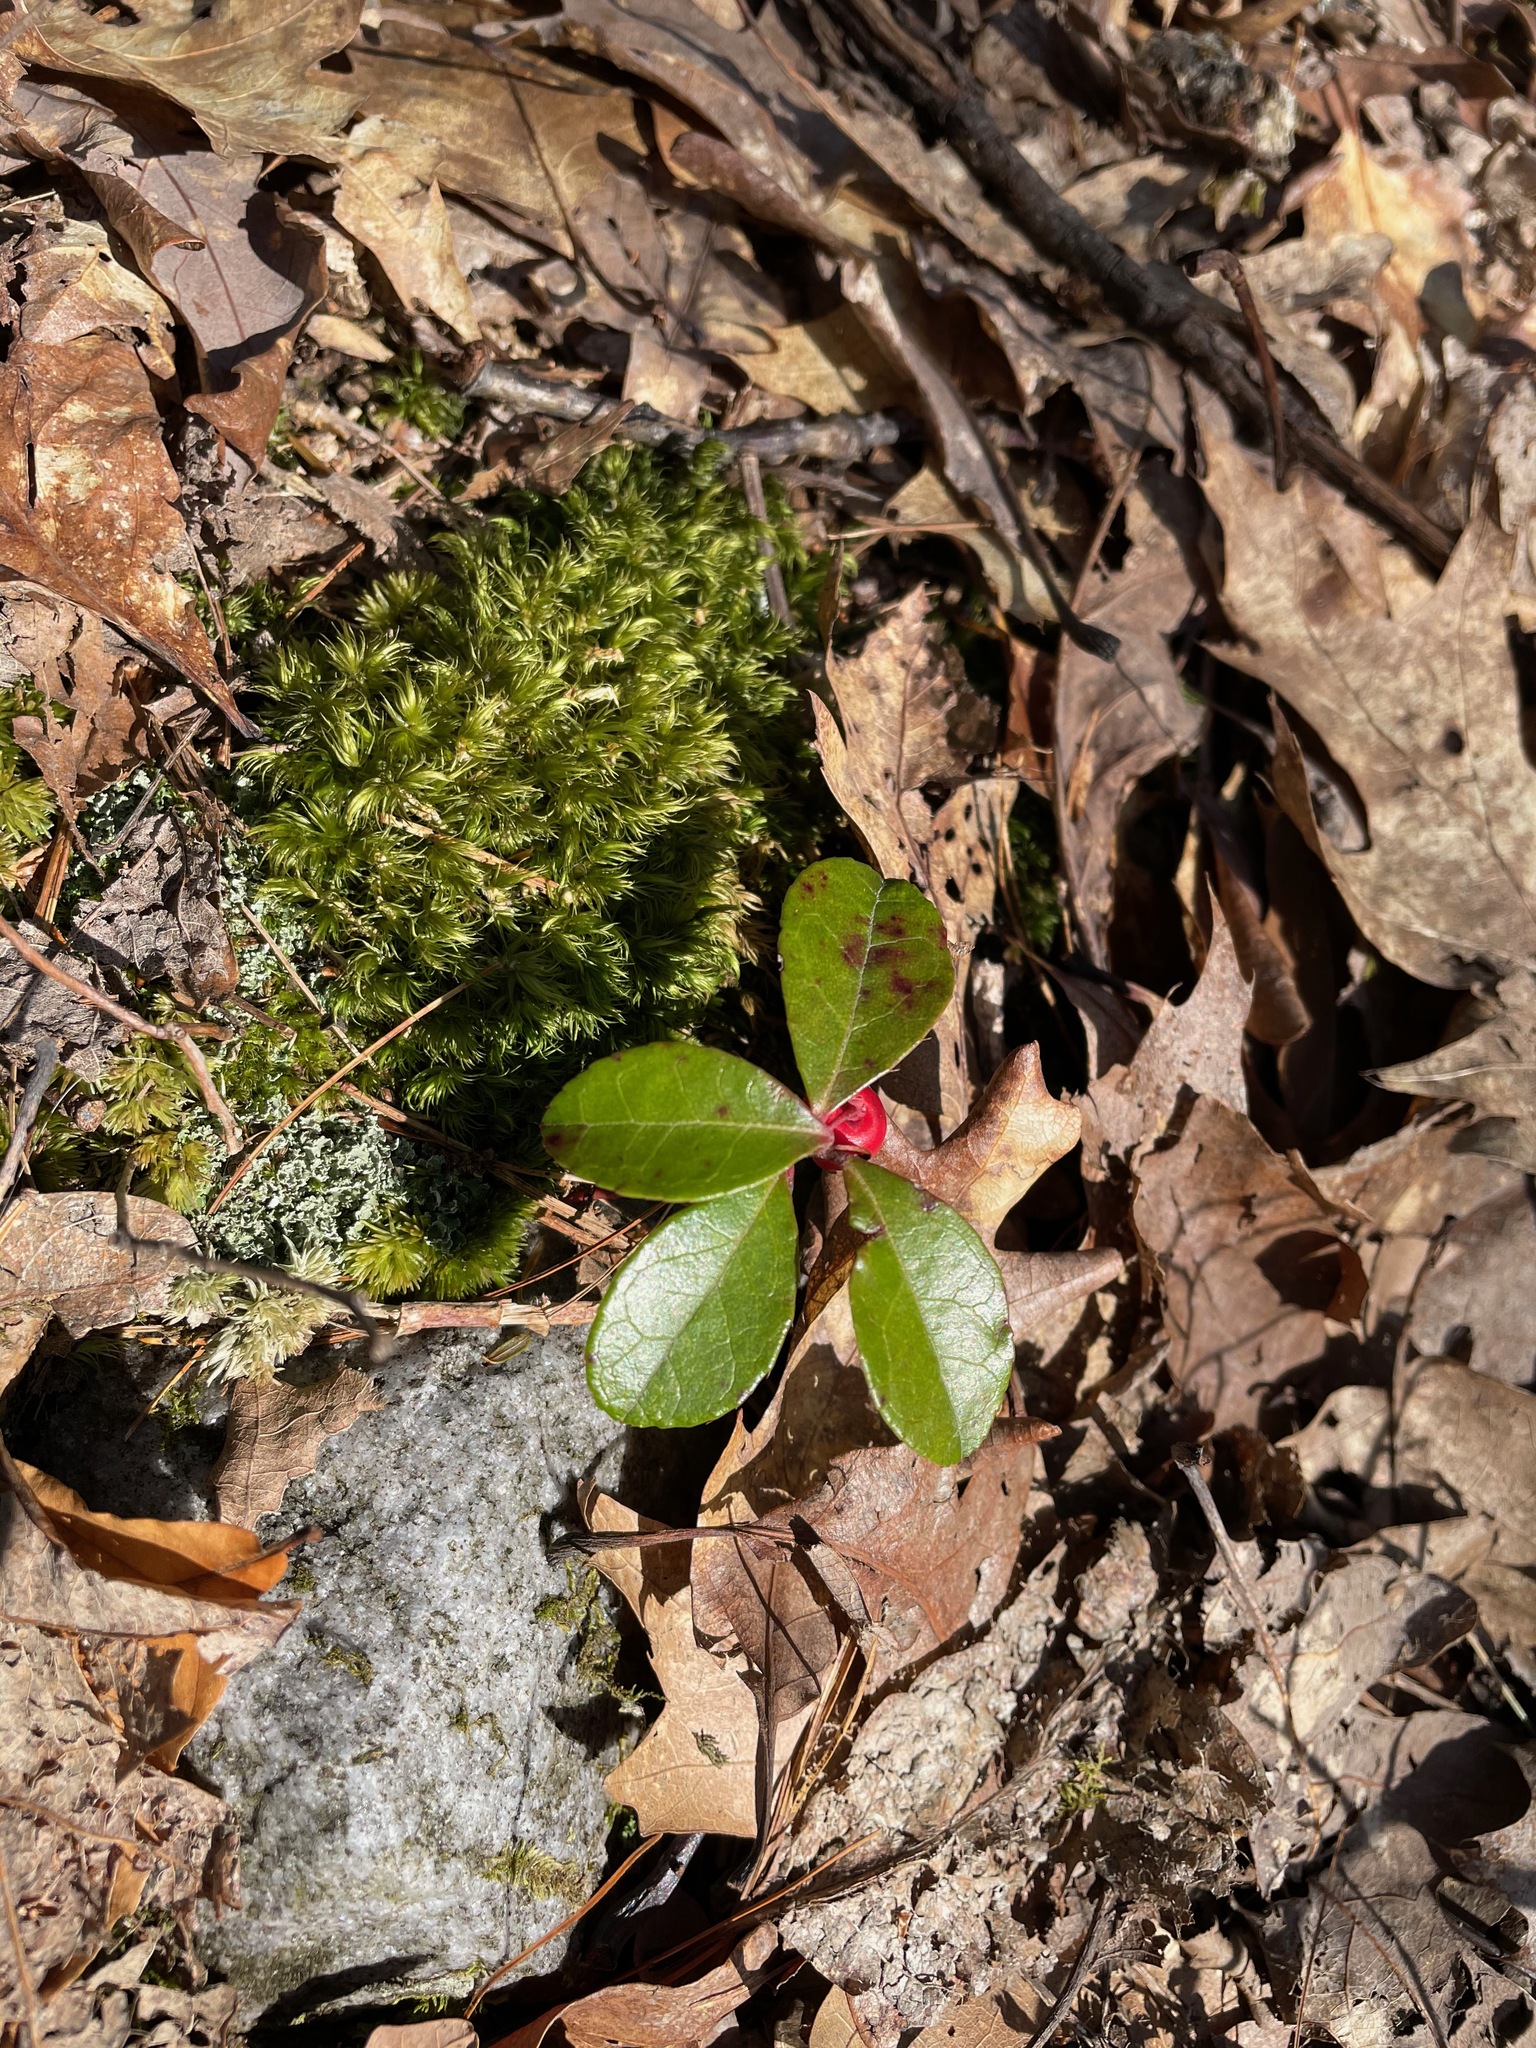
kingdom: Plantae
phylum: Tracheophyta
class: Magnoliopsida
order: Ericales
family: Ericaceae
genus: Gaultheria
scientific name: Gaultheria procumbens
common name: Checkerberry
